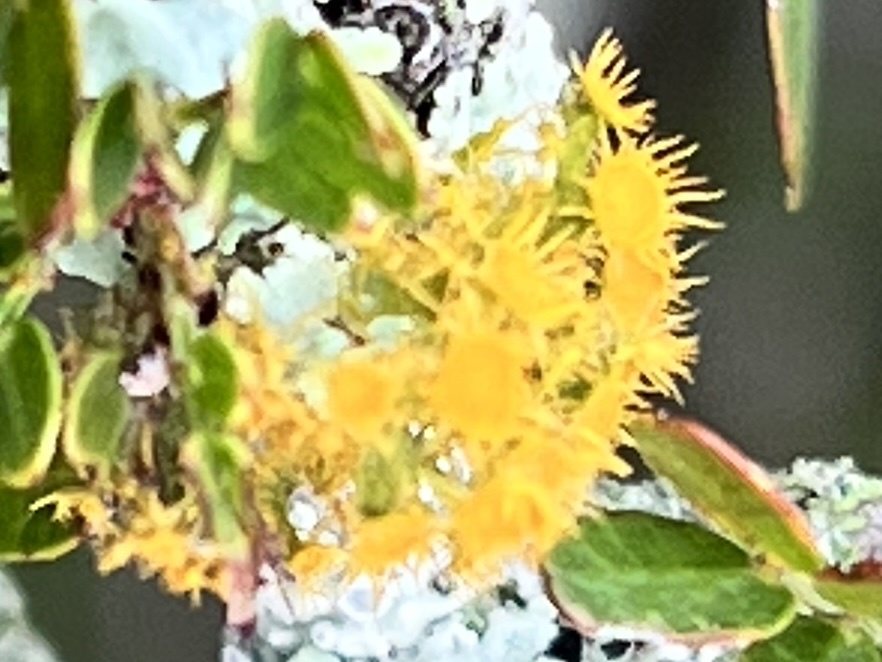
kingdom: Fungi
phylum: Ascomycota
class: Lecanoromycetes
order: Teloschistales
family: Teloschistaceae
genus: Niorma
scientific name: Niorma chrysophthalma
